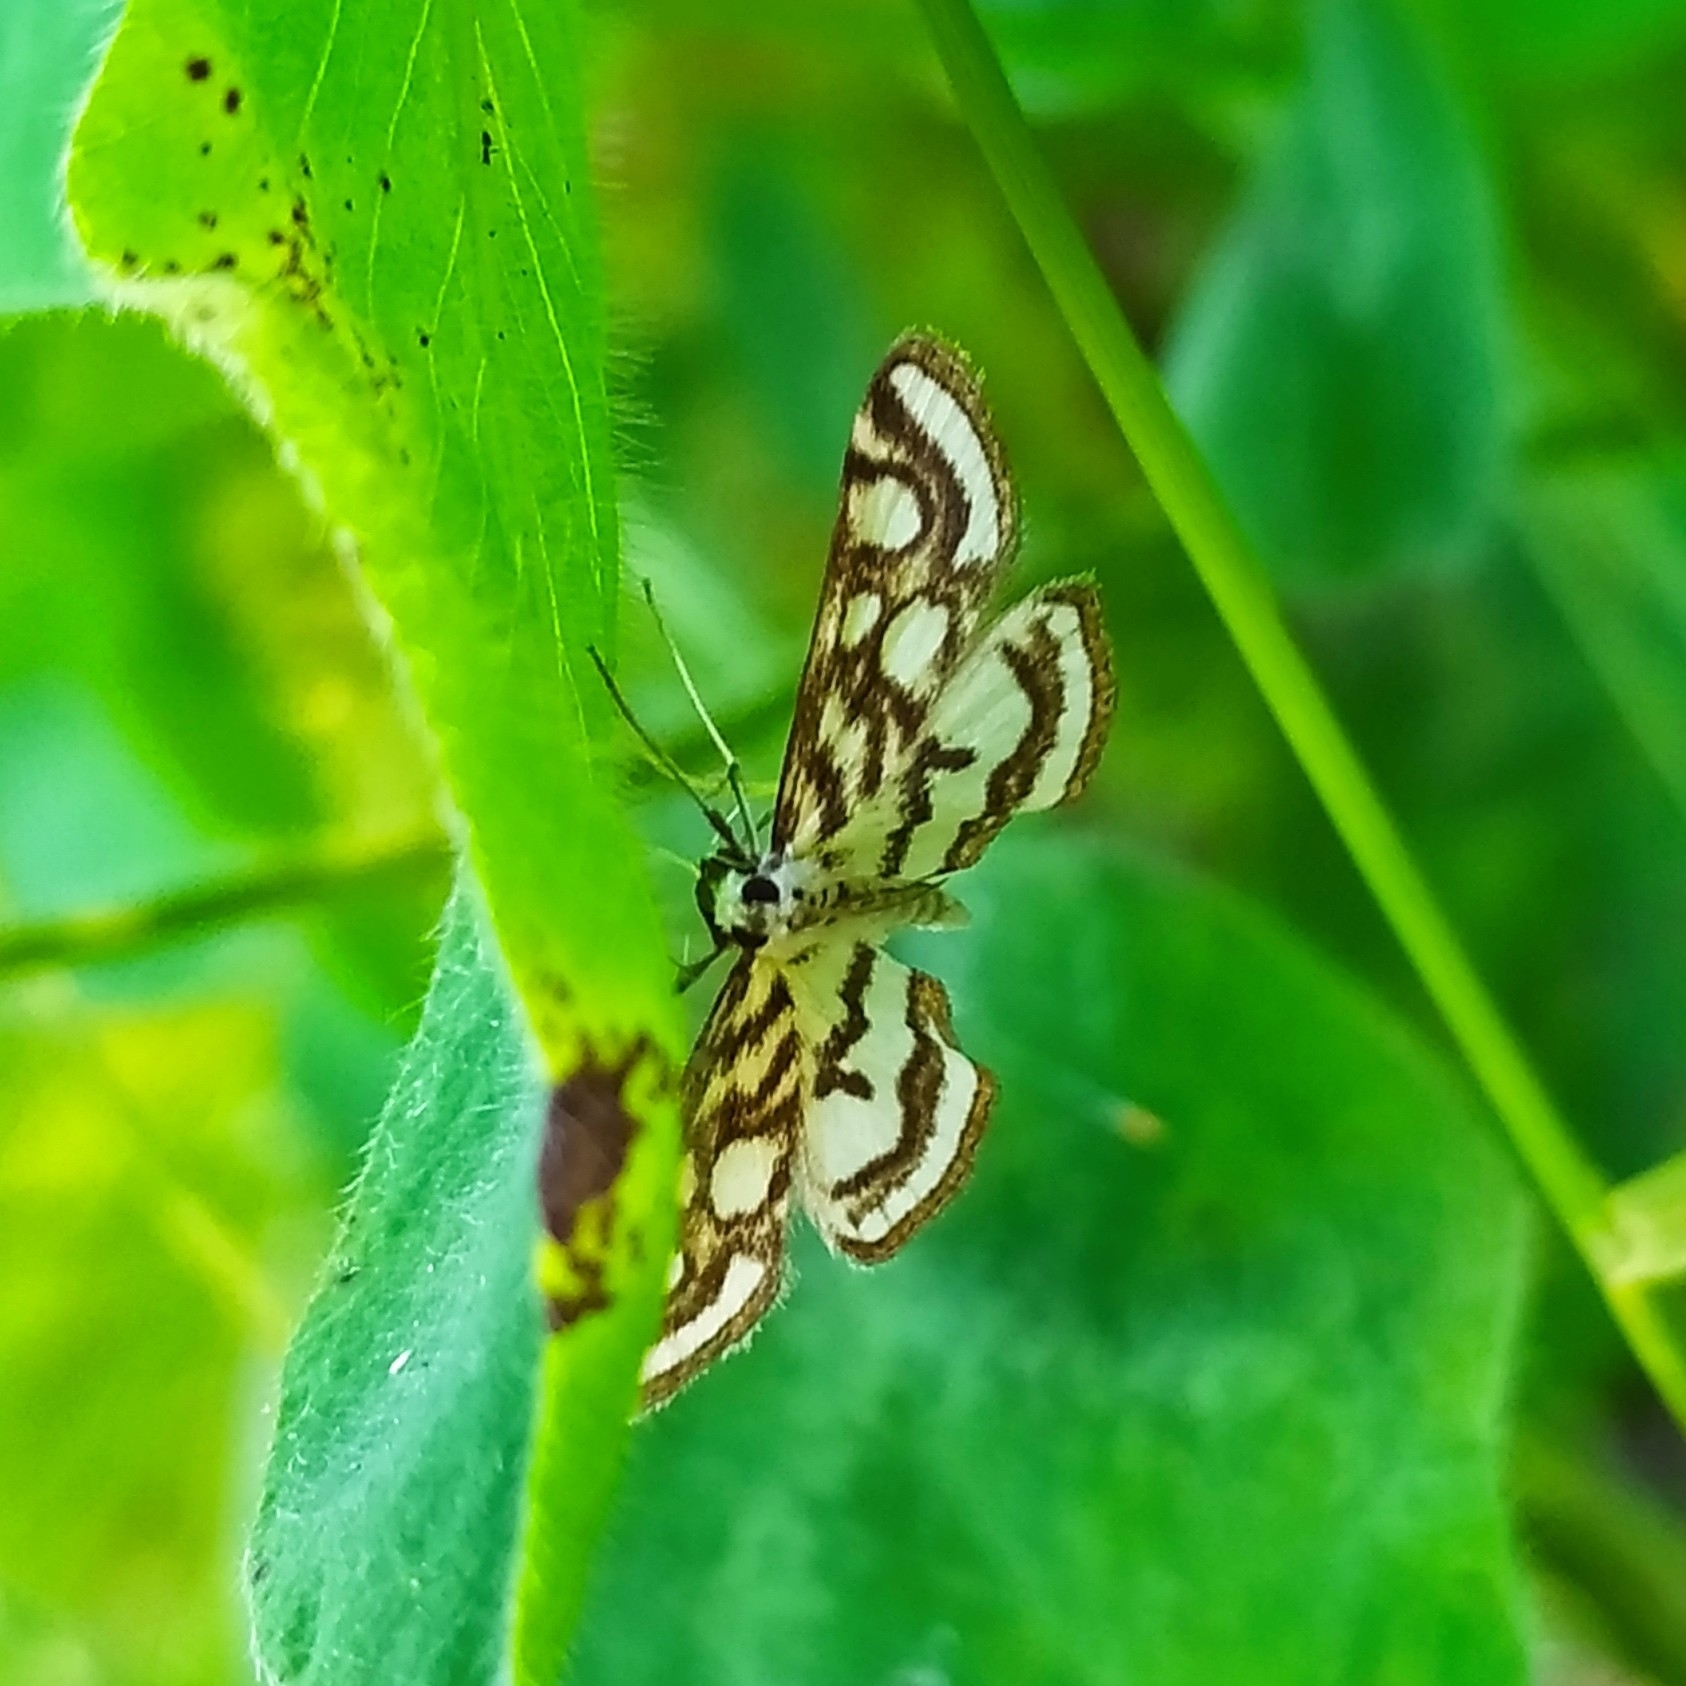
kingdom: Animalia
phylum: Arthropoda
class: Insecta
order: Lepidoptera
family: Crambidae
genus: Nymphula
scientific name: Nymphula nitidulata
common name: Beautiful china mark
